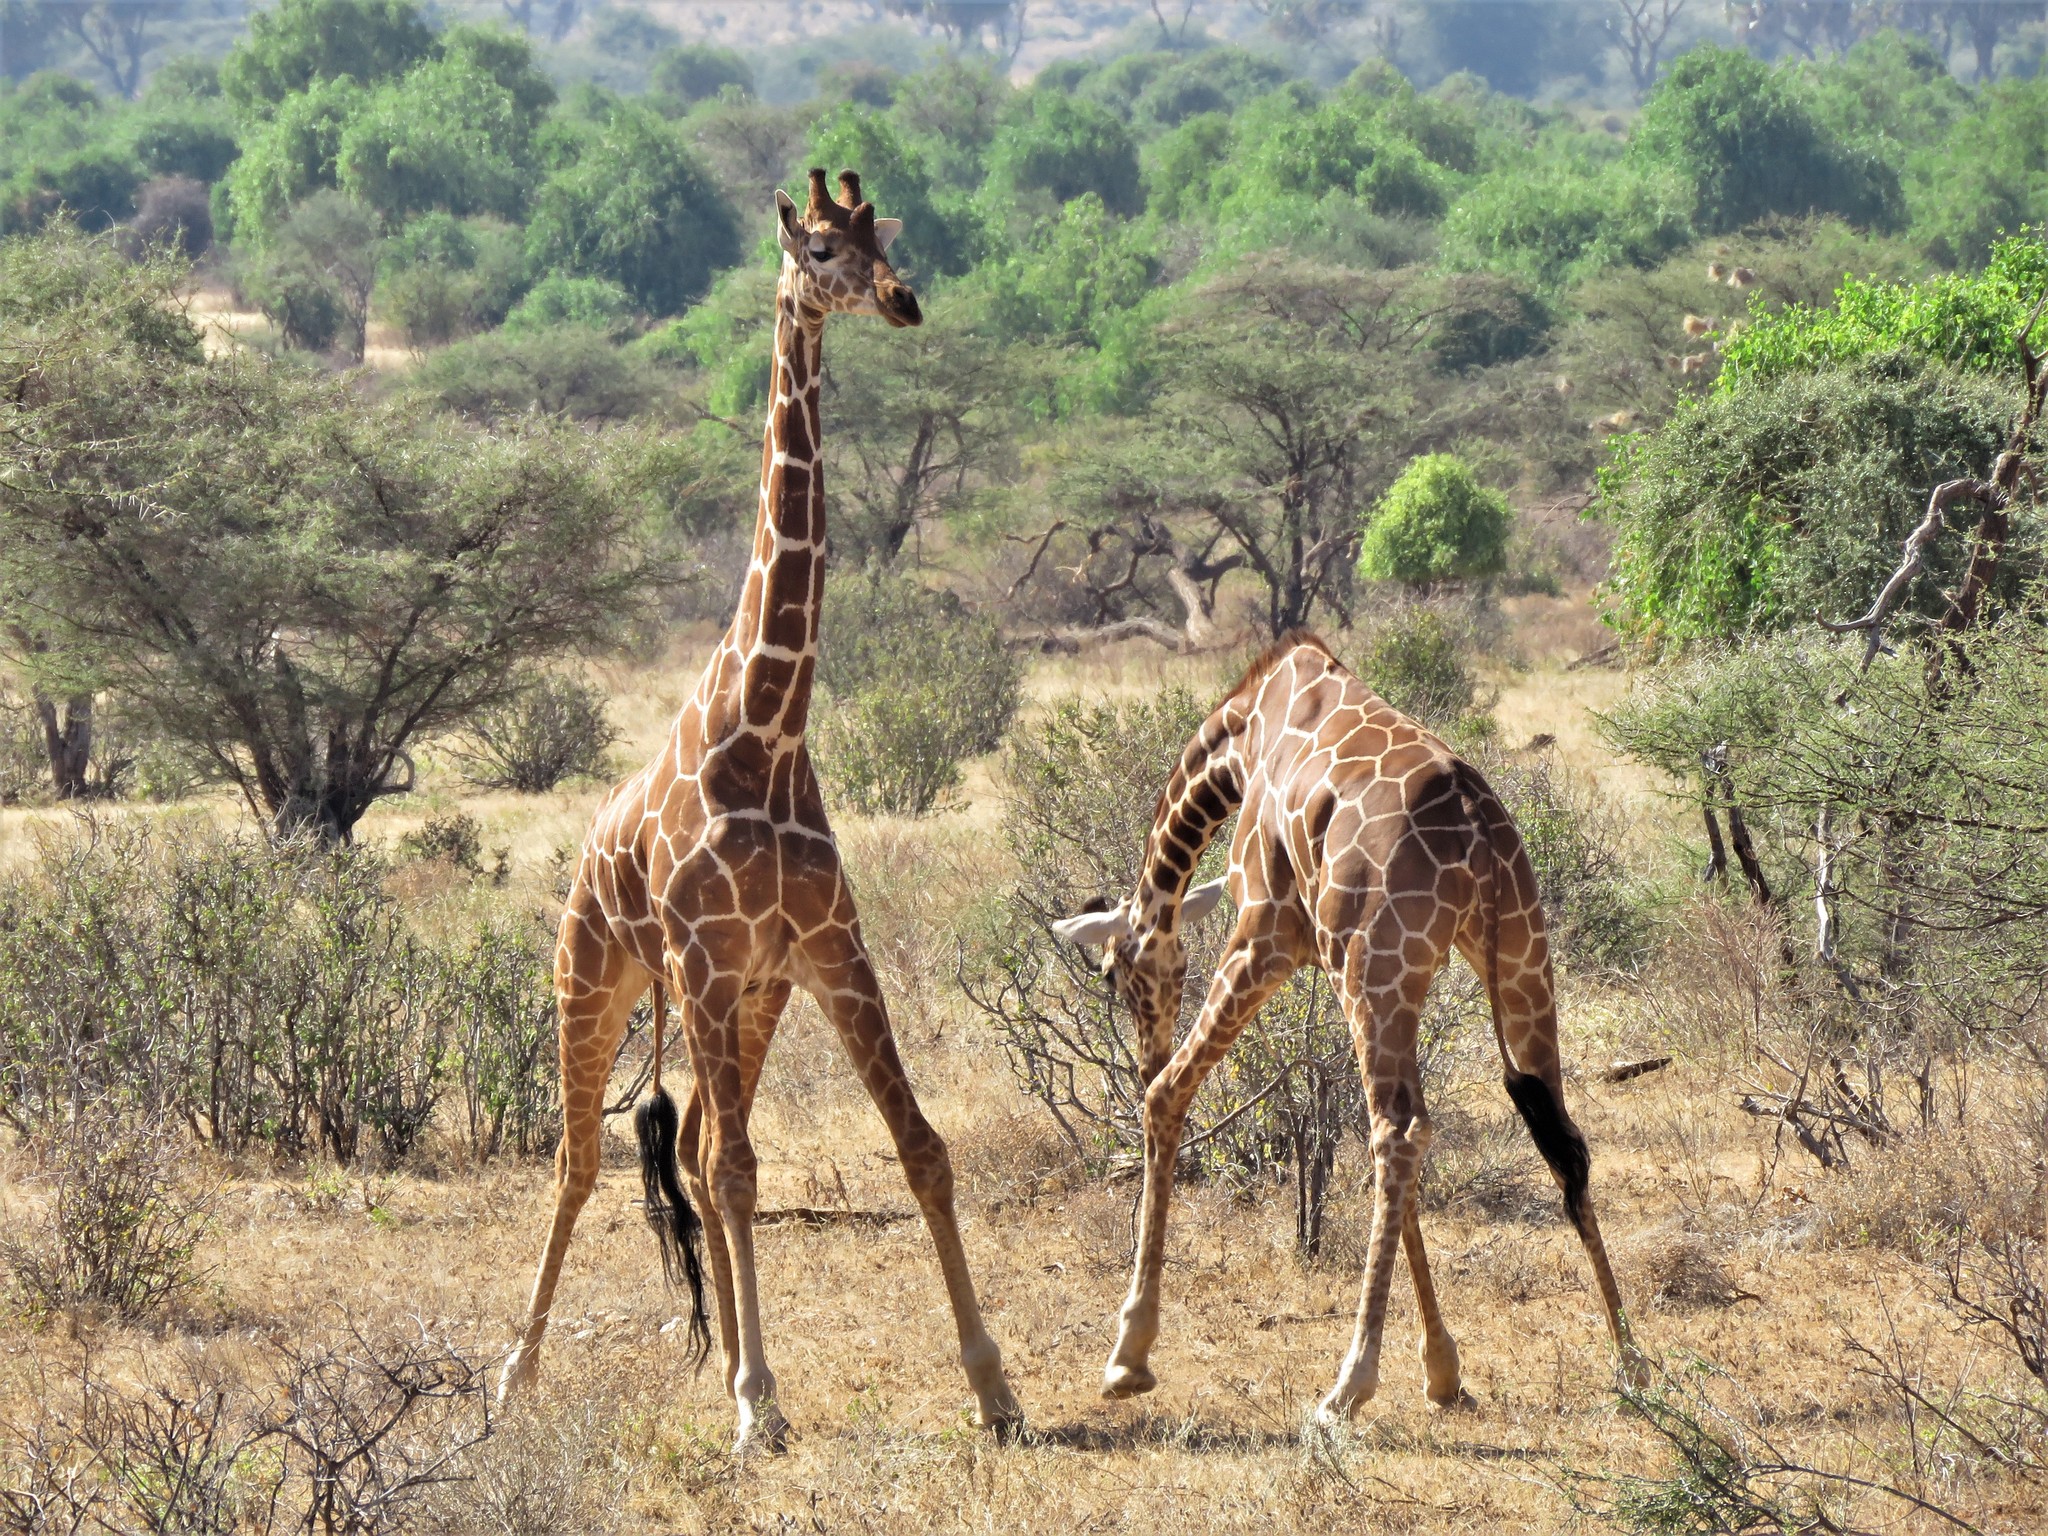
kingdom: Animalia
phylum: Chordata
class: Mammalia
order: Artiodactyla
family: Giraffidae
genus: Giraffa
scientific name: Giraffa reticulata
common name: Reticulated giraffe
